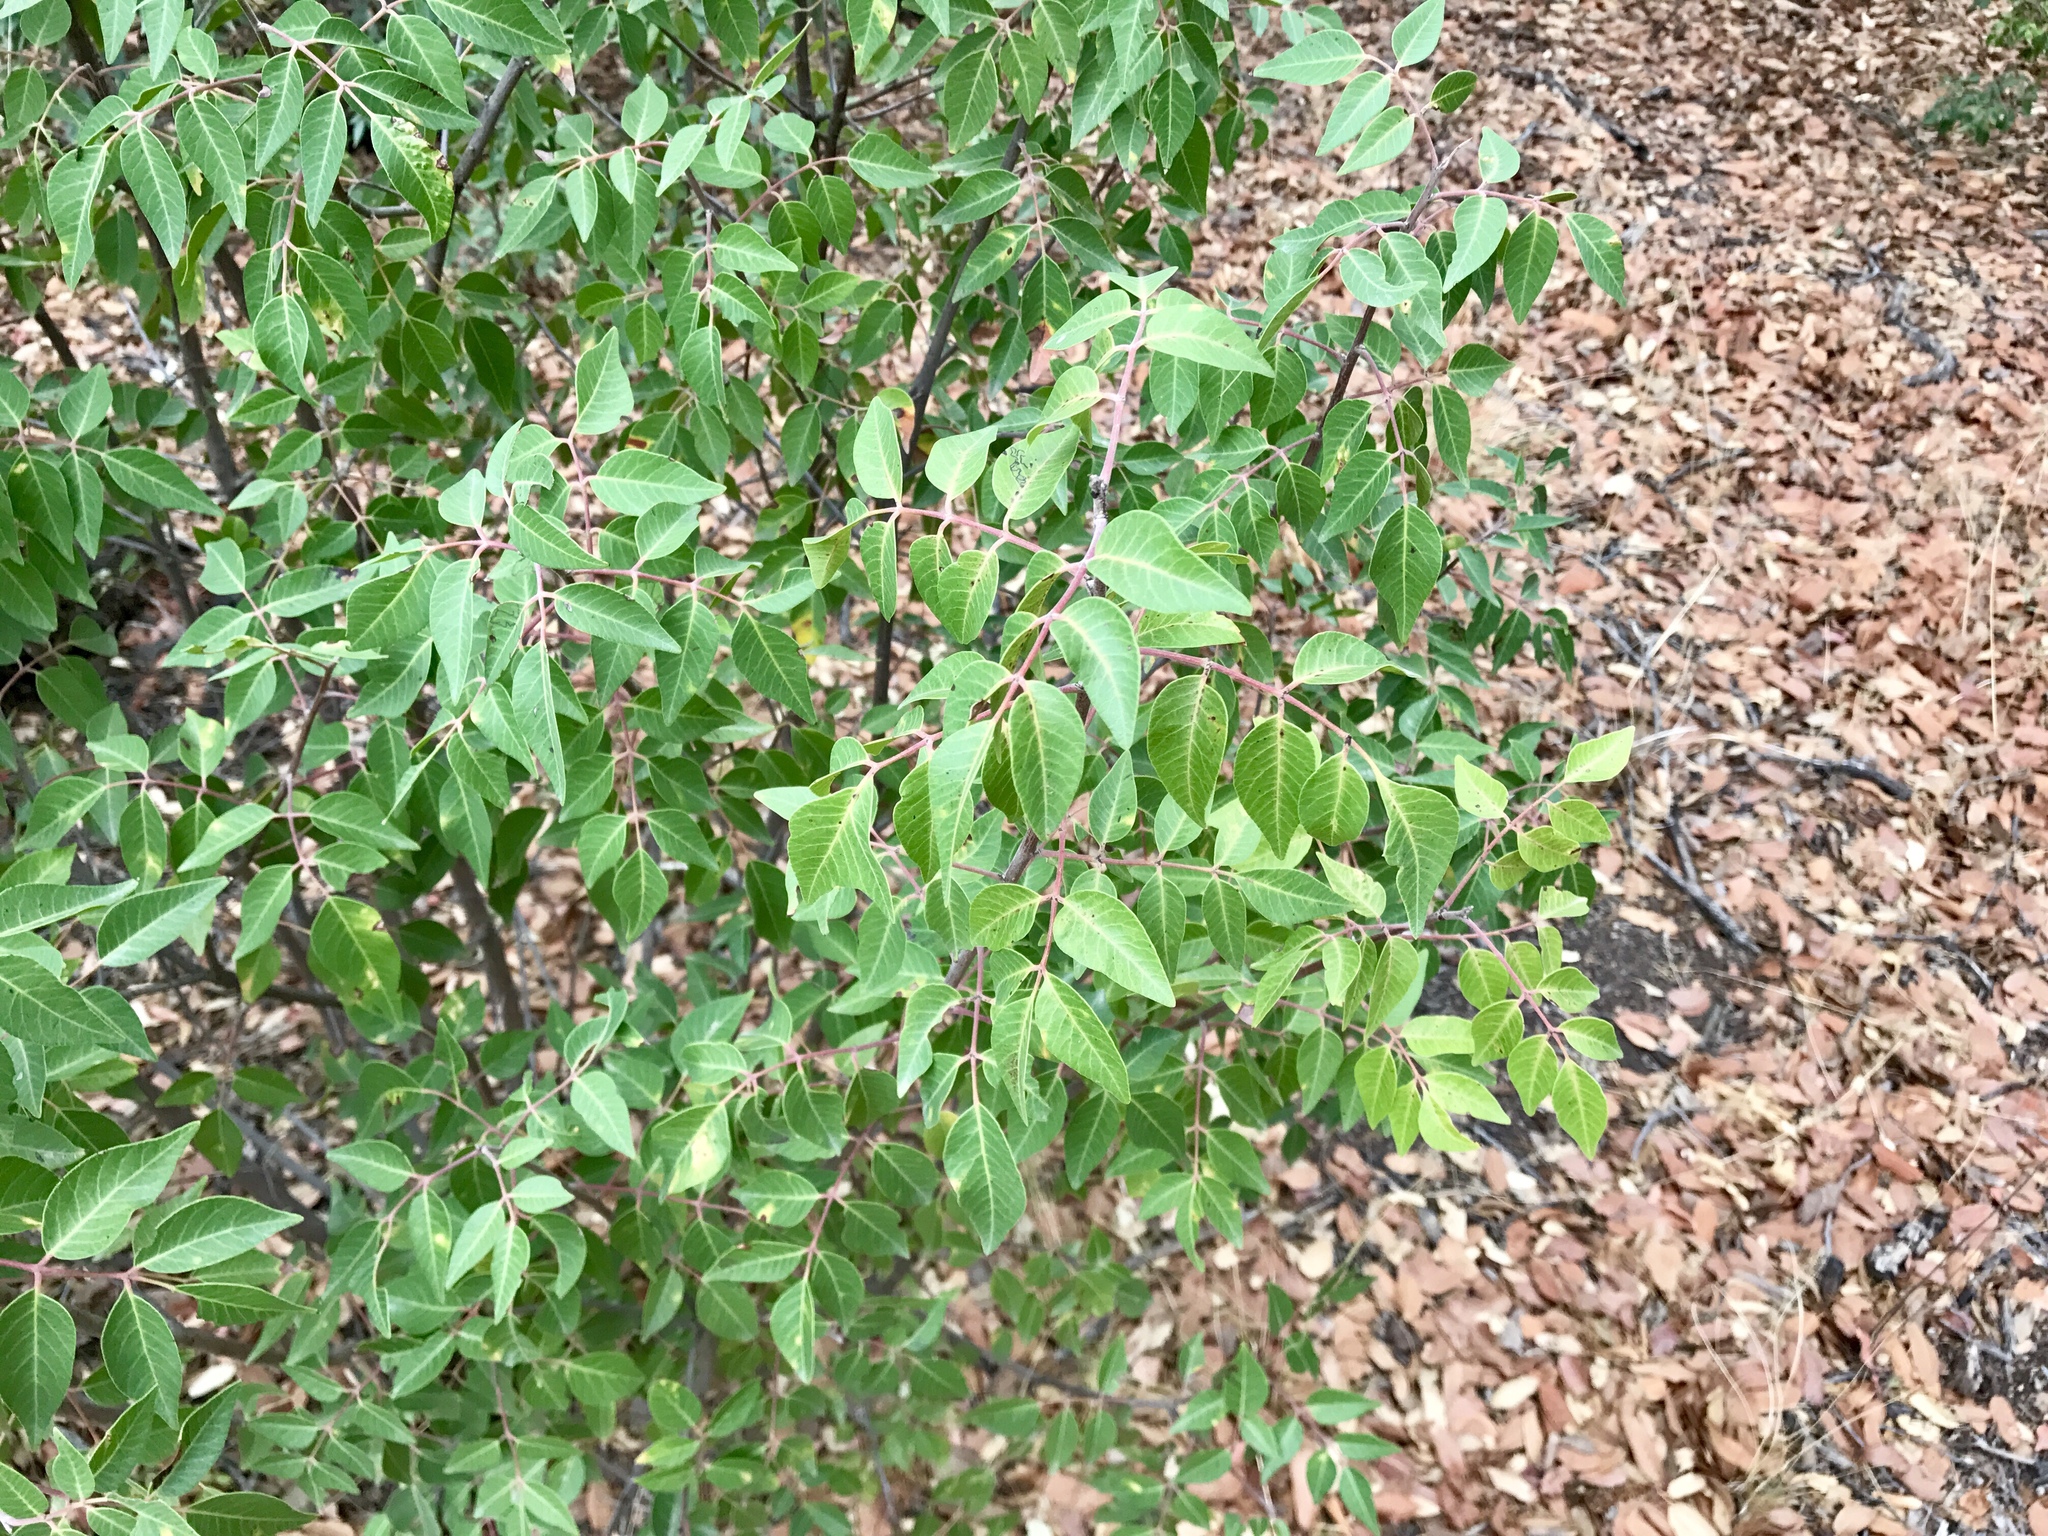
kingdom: Plantae
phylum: Tracheophyta
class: Magnoliopsida
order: Sapindales
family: Anacardiaceae
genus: Rhus
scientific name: Rhus virens
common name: Evergreen sumac
